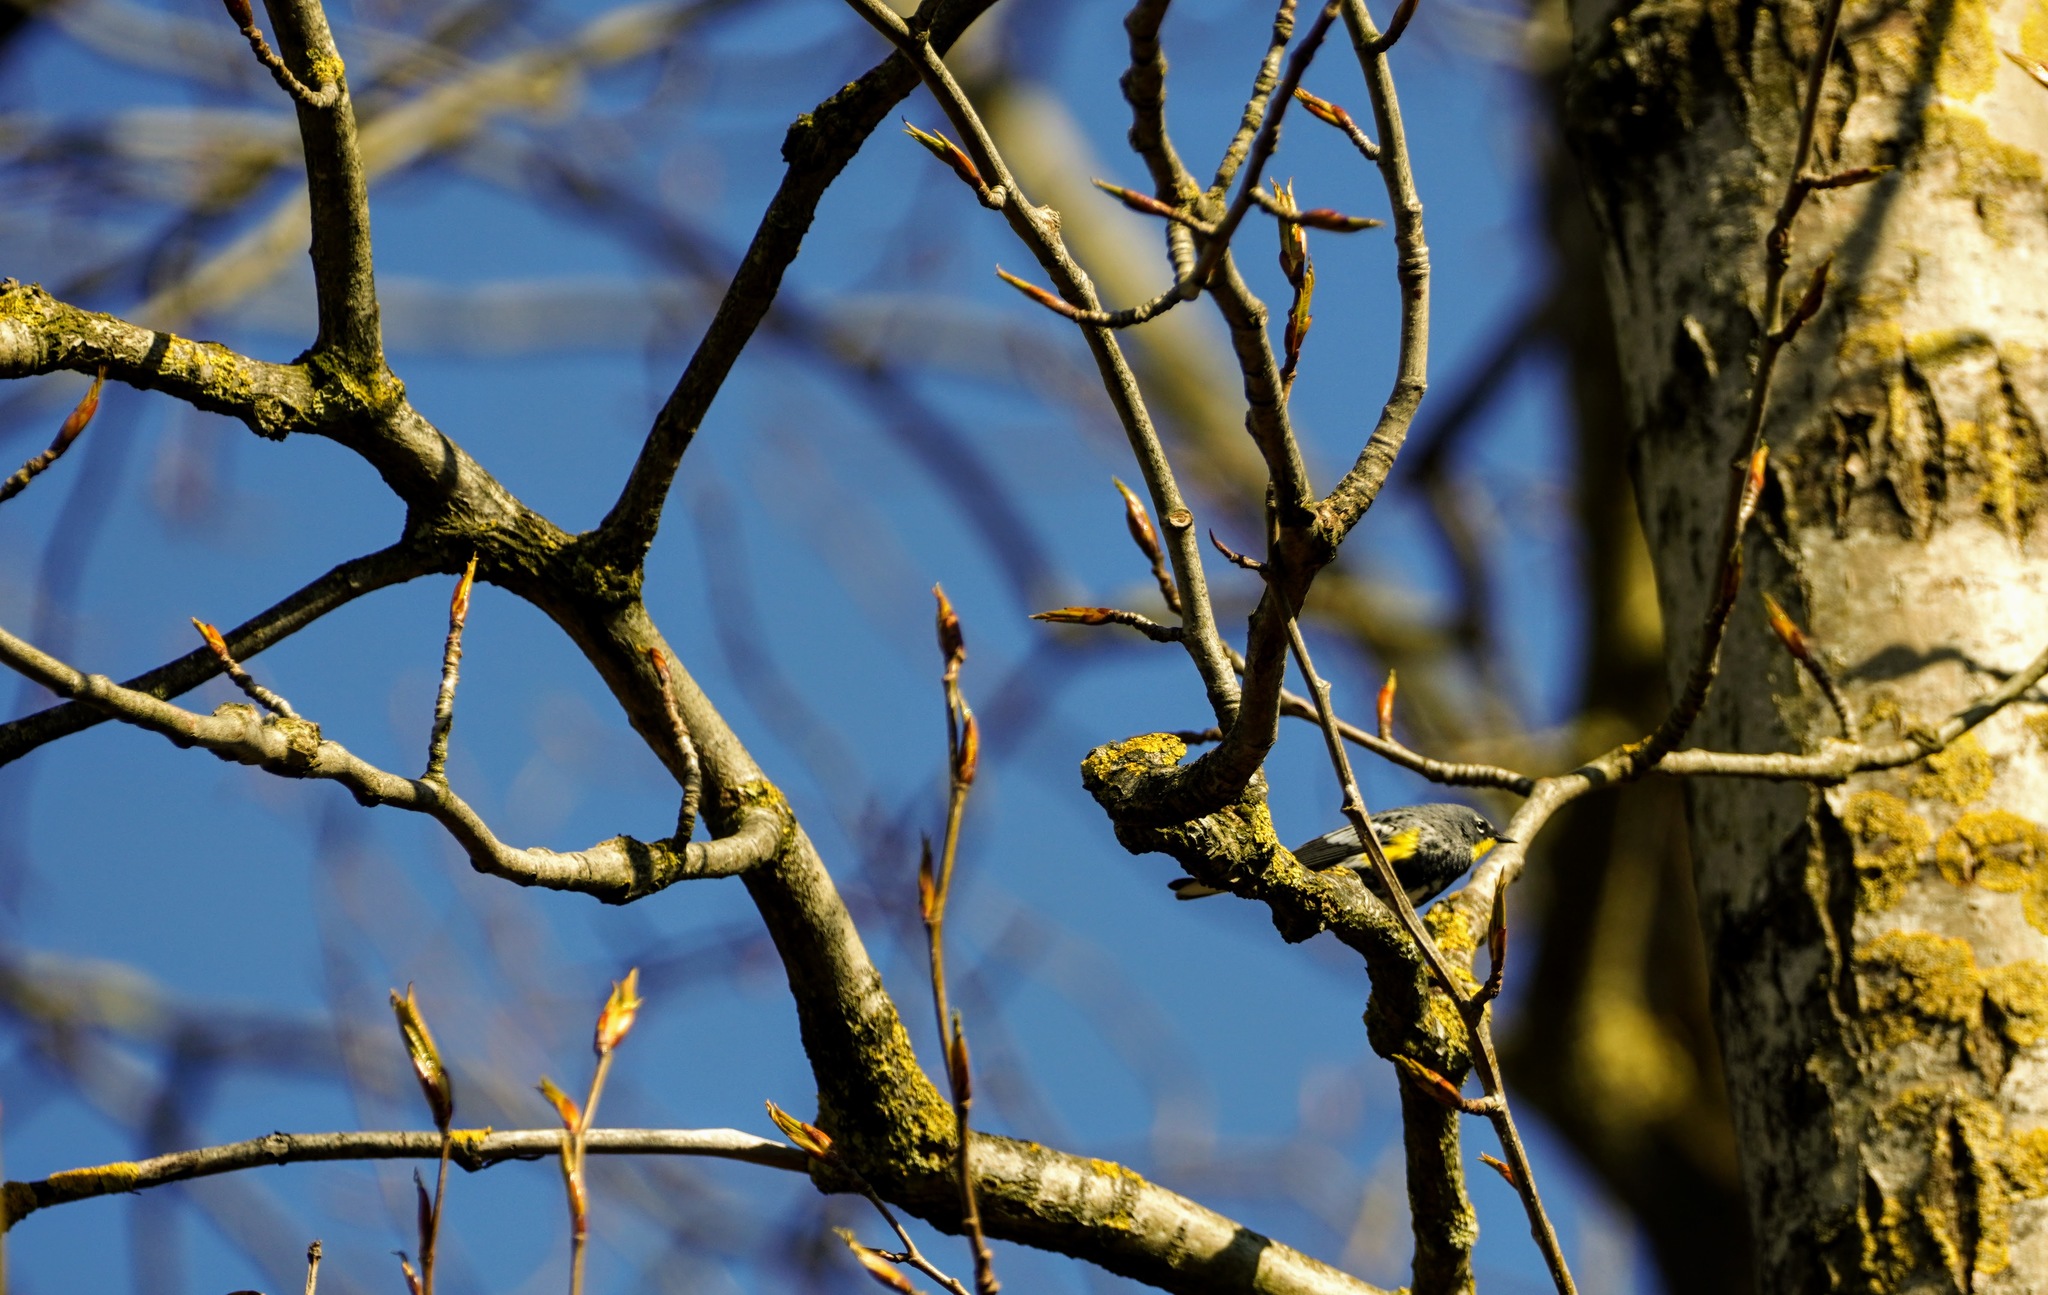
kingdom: Animalia
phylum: Chordata
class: Aves
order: Passeriformes
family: Parulidae
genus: Setophaga
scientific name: Setophaga coronata
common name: Myrtle warbler
